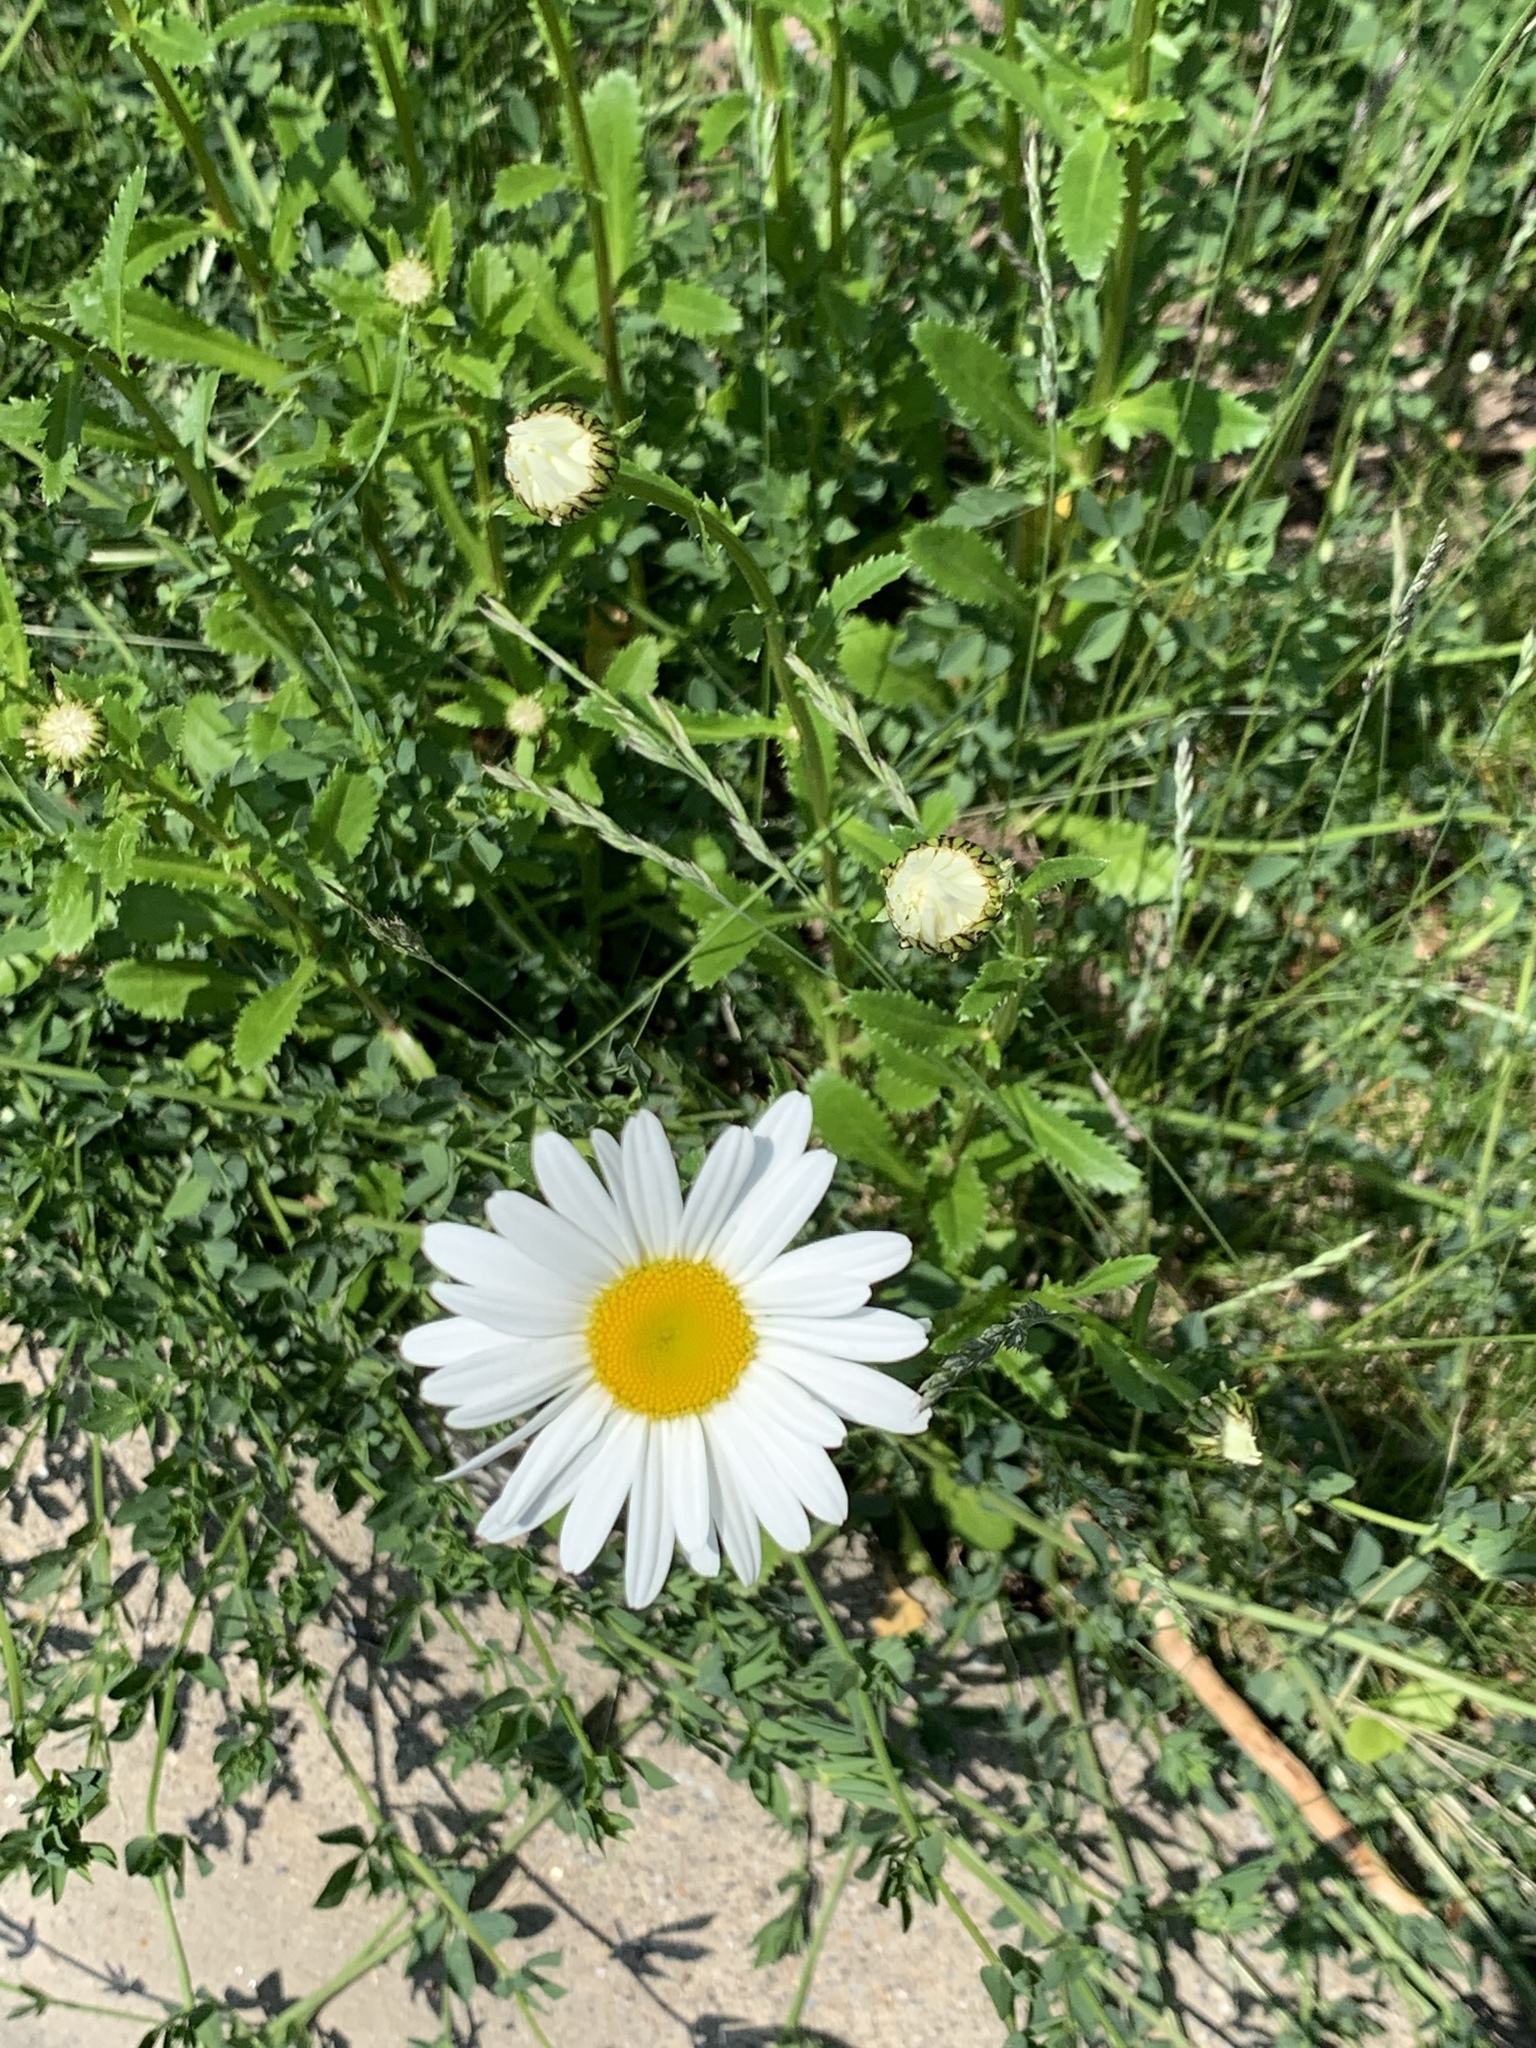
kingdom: Plantae
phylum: Tracheophyta
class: Magnoliopsida
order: Asterales
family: Asteraceae
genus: Leucanthemum
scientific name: Leucanthemum vulgare
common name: Oxeye daisy
